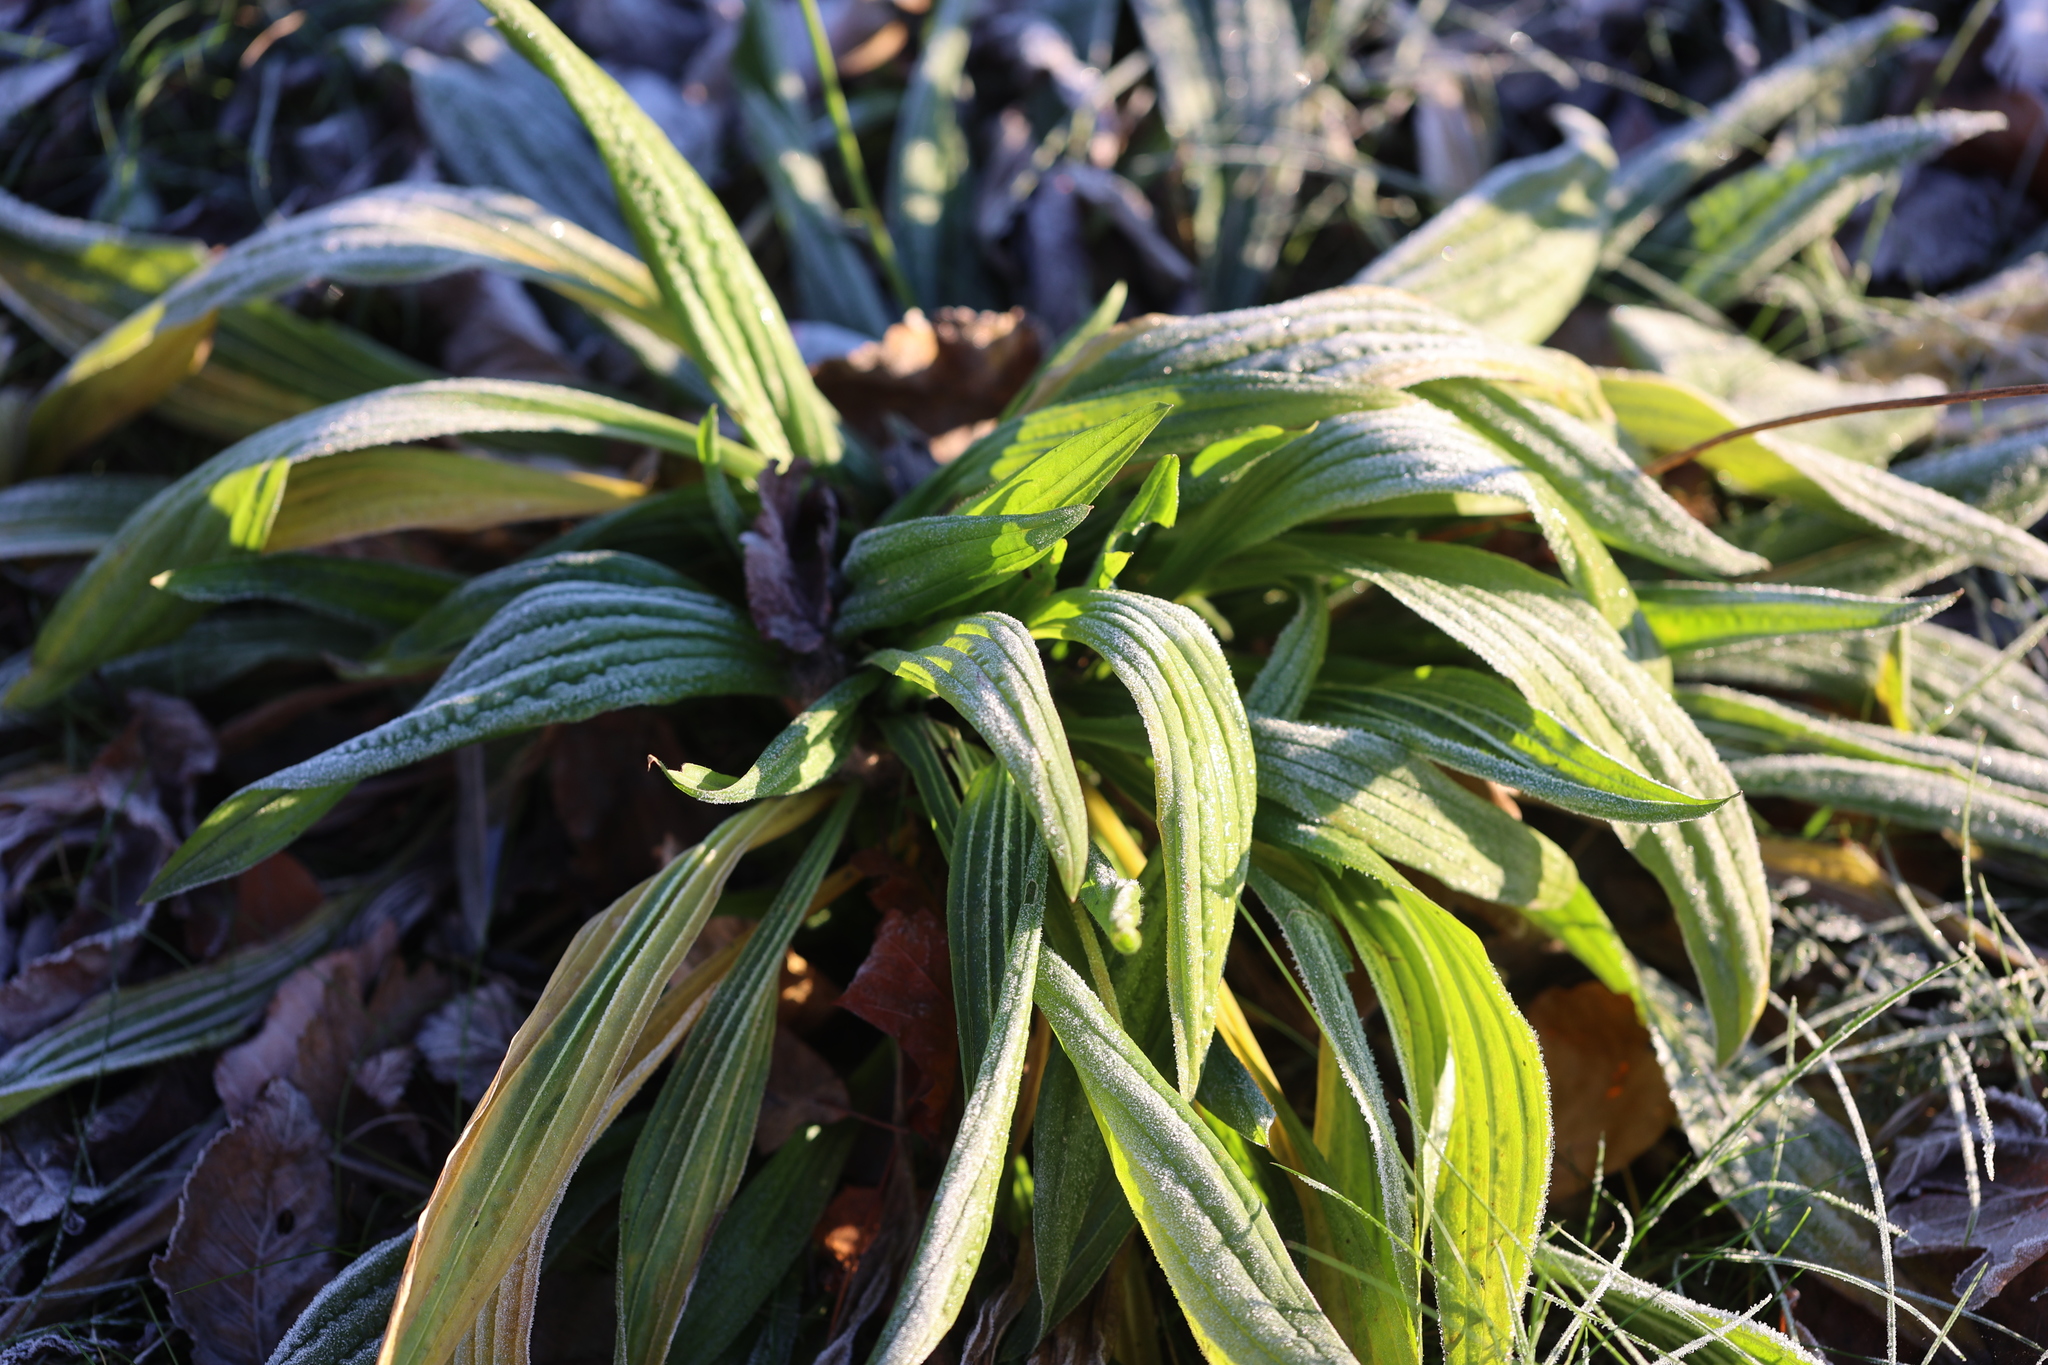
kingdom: Plantae
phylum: Tracheophyta
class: Magnoliopsida
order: Lamiales
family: Plantaginaceae
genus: Plantago
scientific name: Plantago lanceolata
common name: Ribwort plantain
